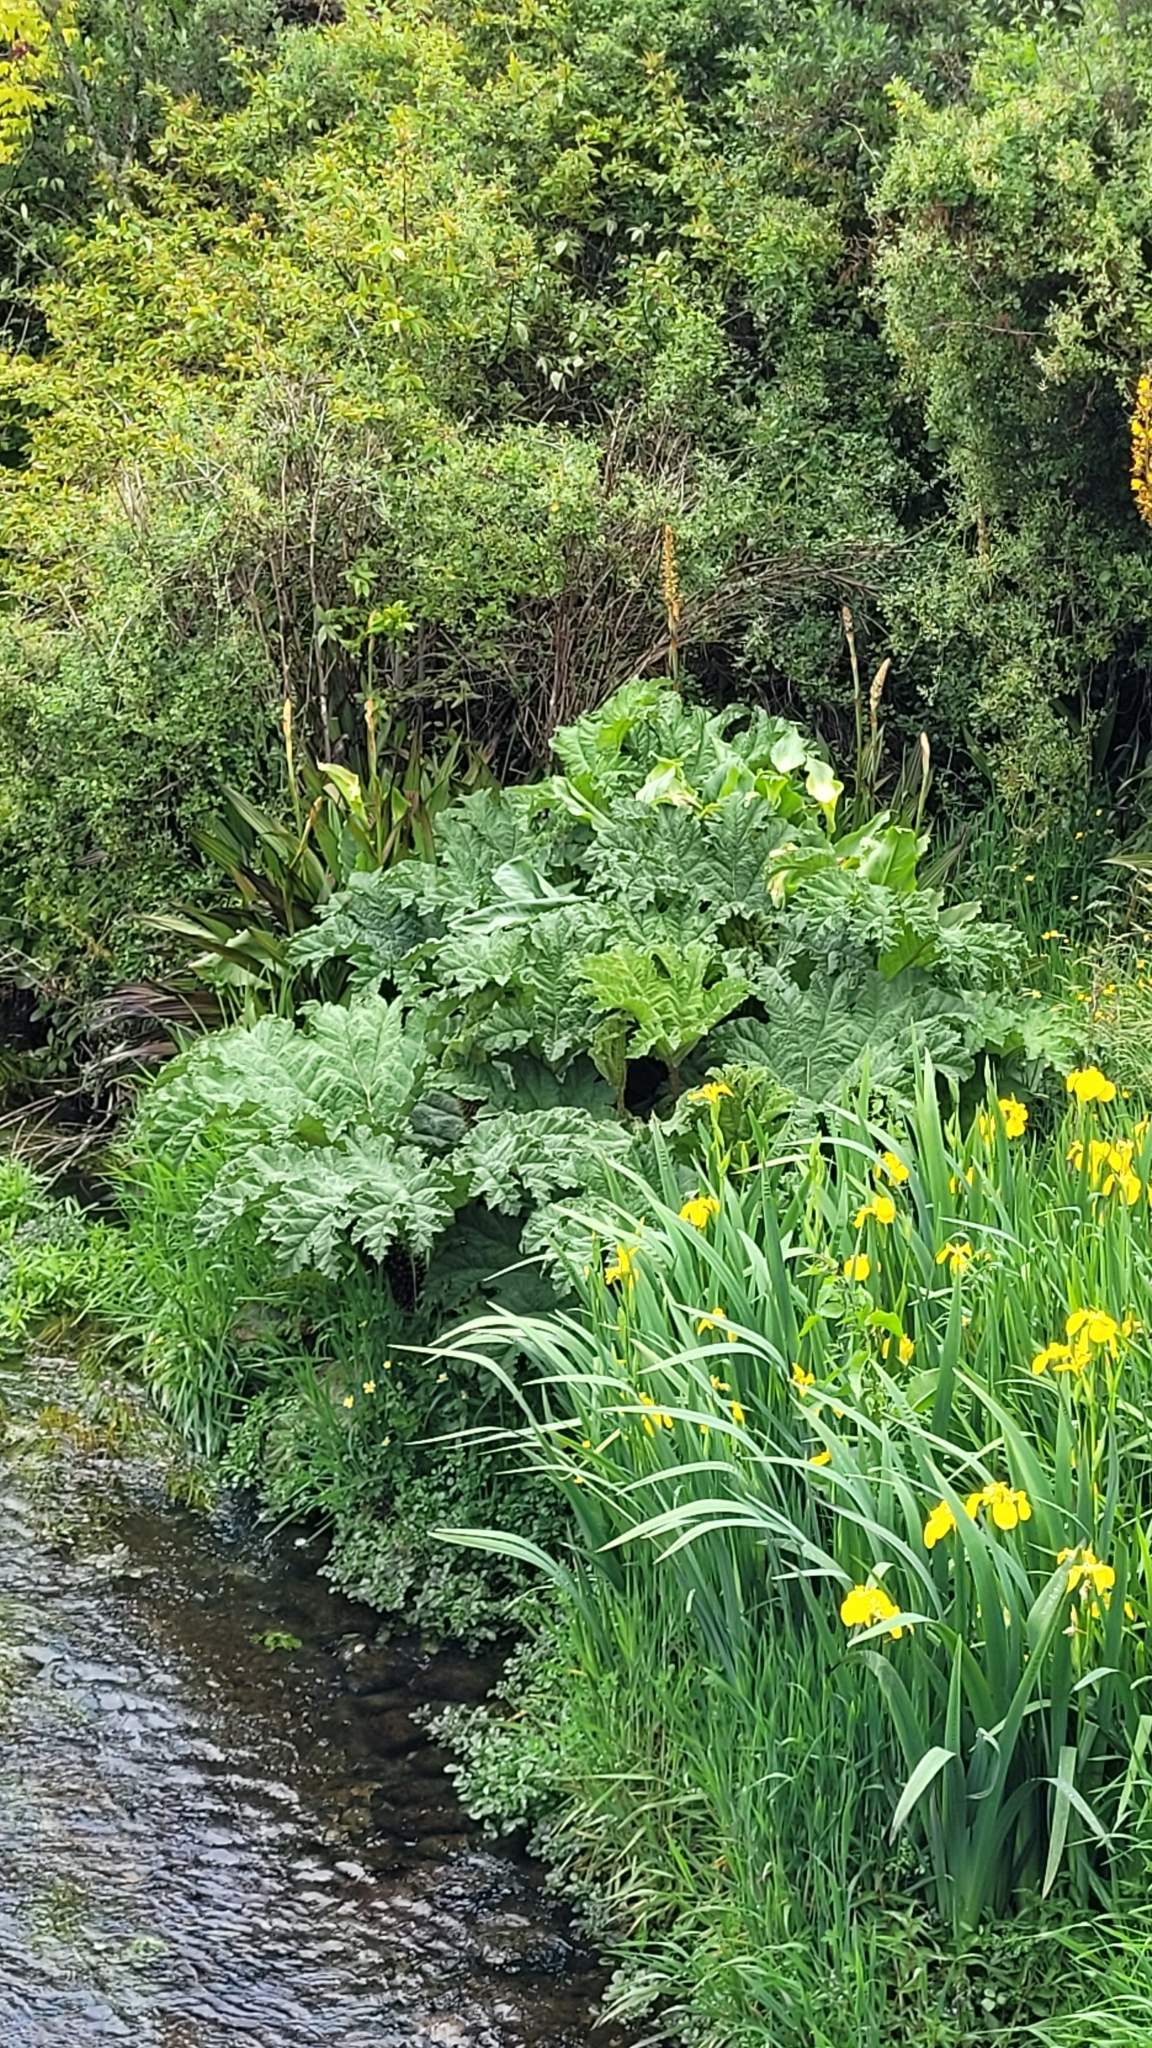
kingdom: Plantae
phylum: Tracheophyta
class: Magnoliopsida
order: Gunnerales
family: Gunneraceae
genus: Gunnera
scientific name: Gunnera tinctoria
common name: Giant-rhubarb
